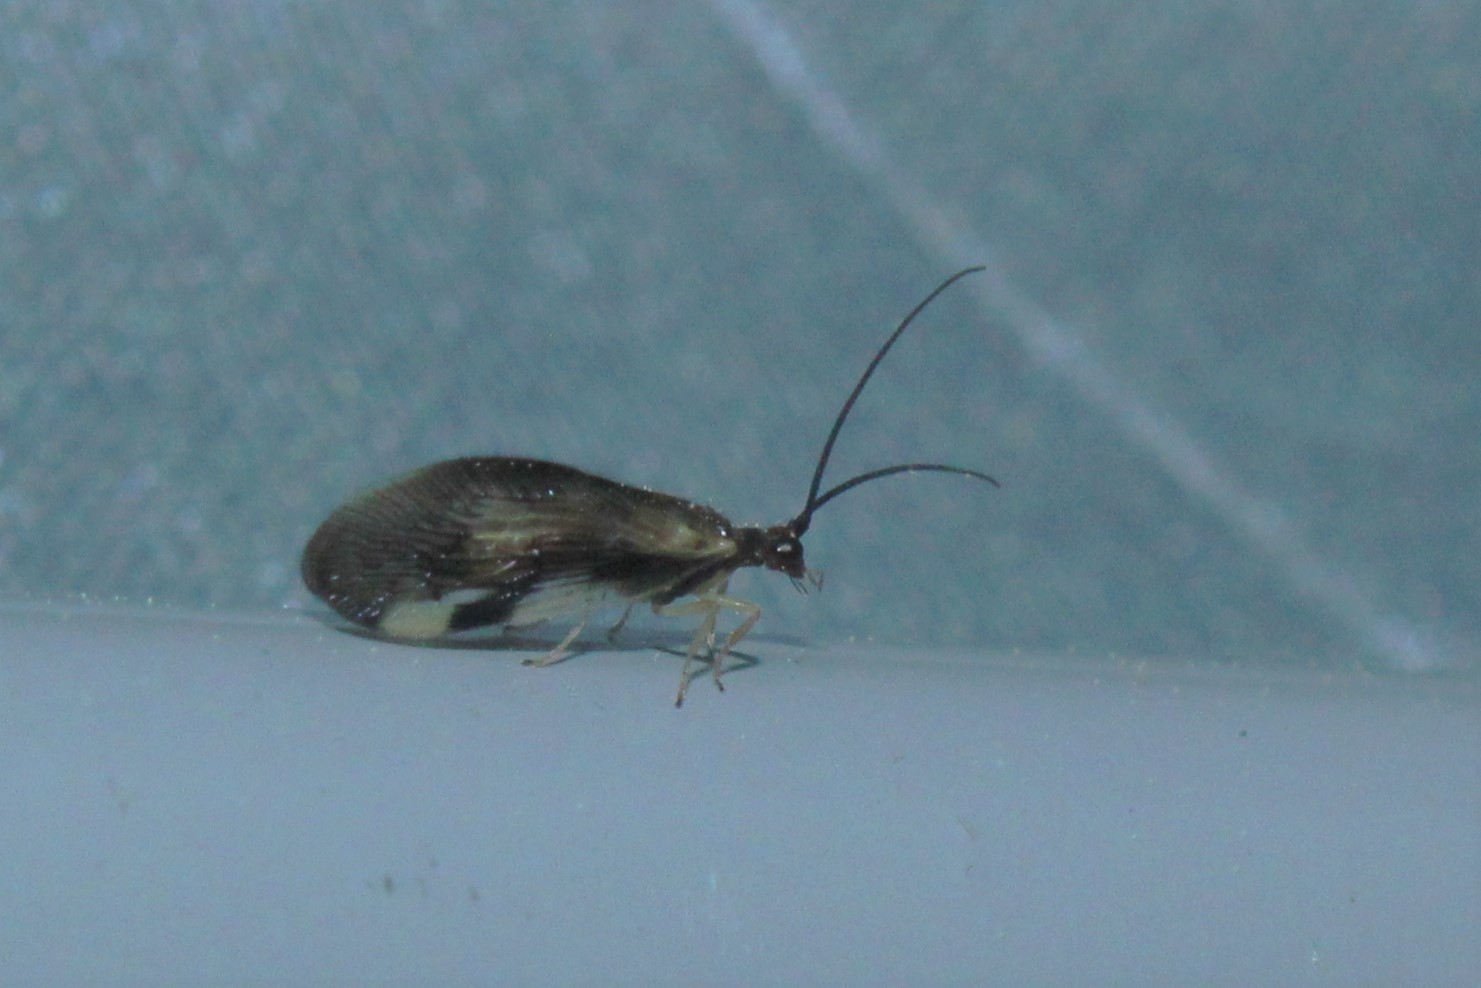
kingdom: Animalia
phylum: Arthropoda
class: Insecta
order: Neuroptera
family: Sisyridae
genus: Climacia
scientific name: Climacia areolaris
